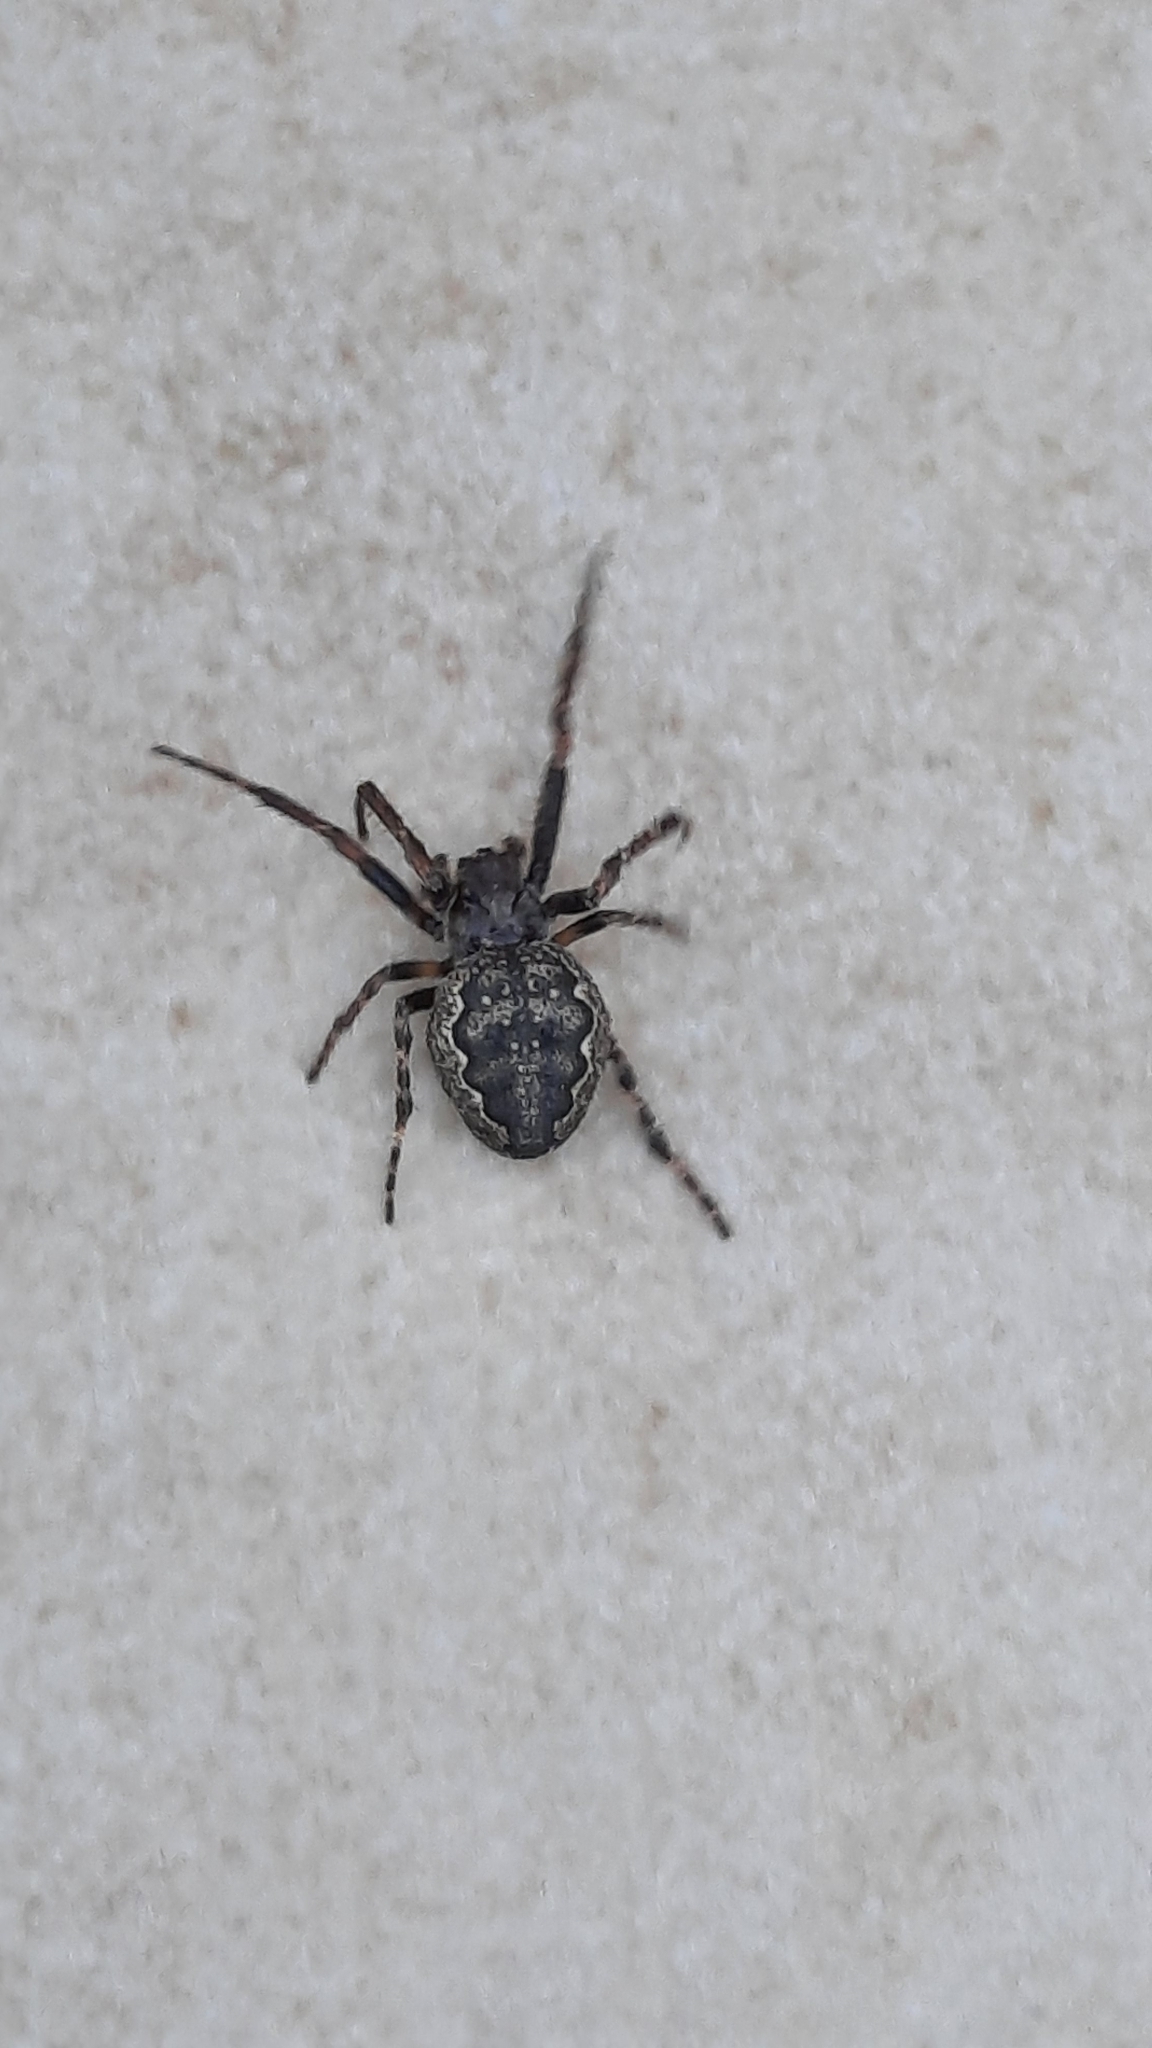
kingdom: Animalia
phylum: Arthropoda
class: Arachnida
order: Araneae
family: Araneidae
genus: Nuctenea
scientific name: Nuctenea umbratica
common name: Toad spider
